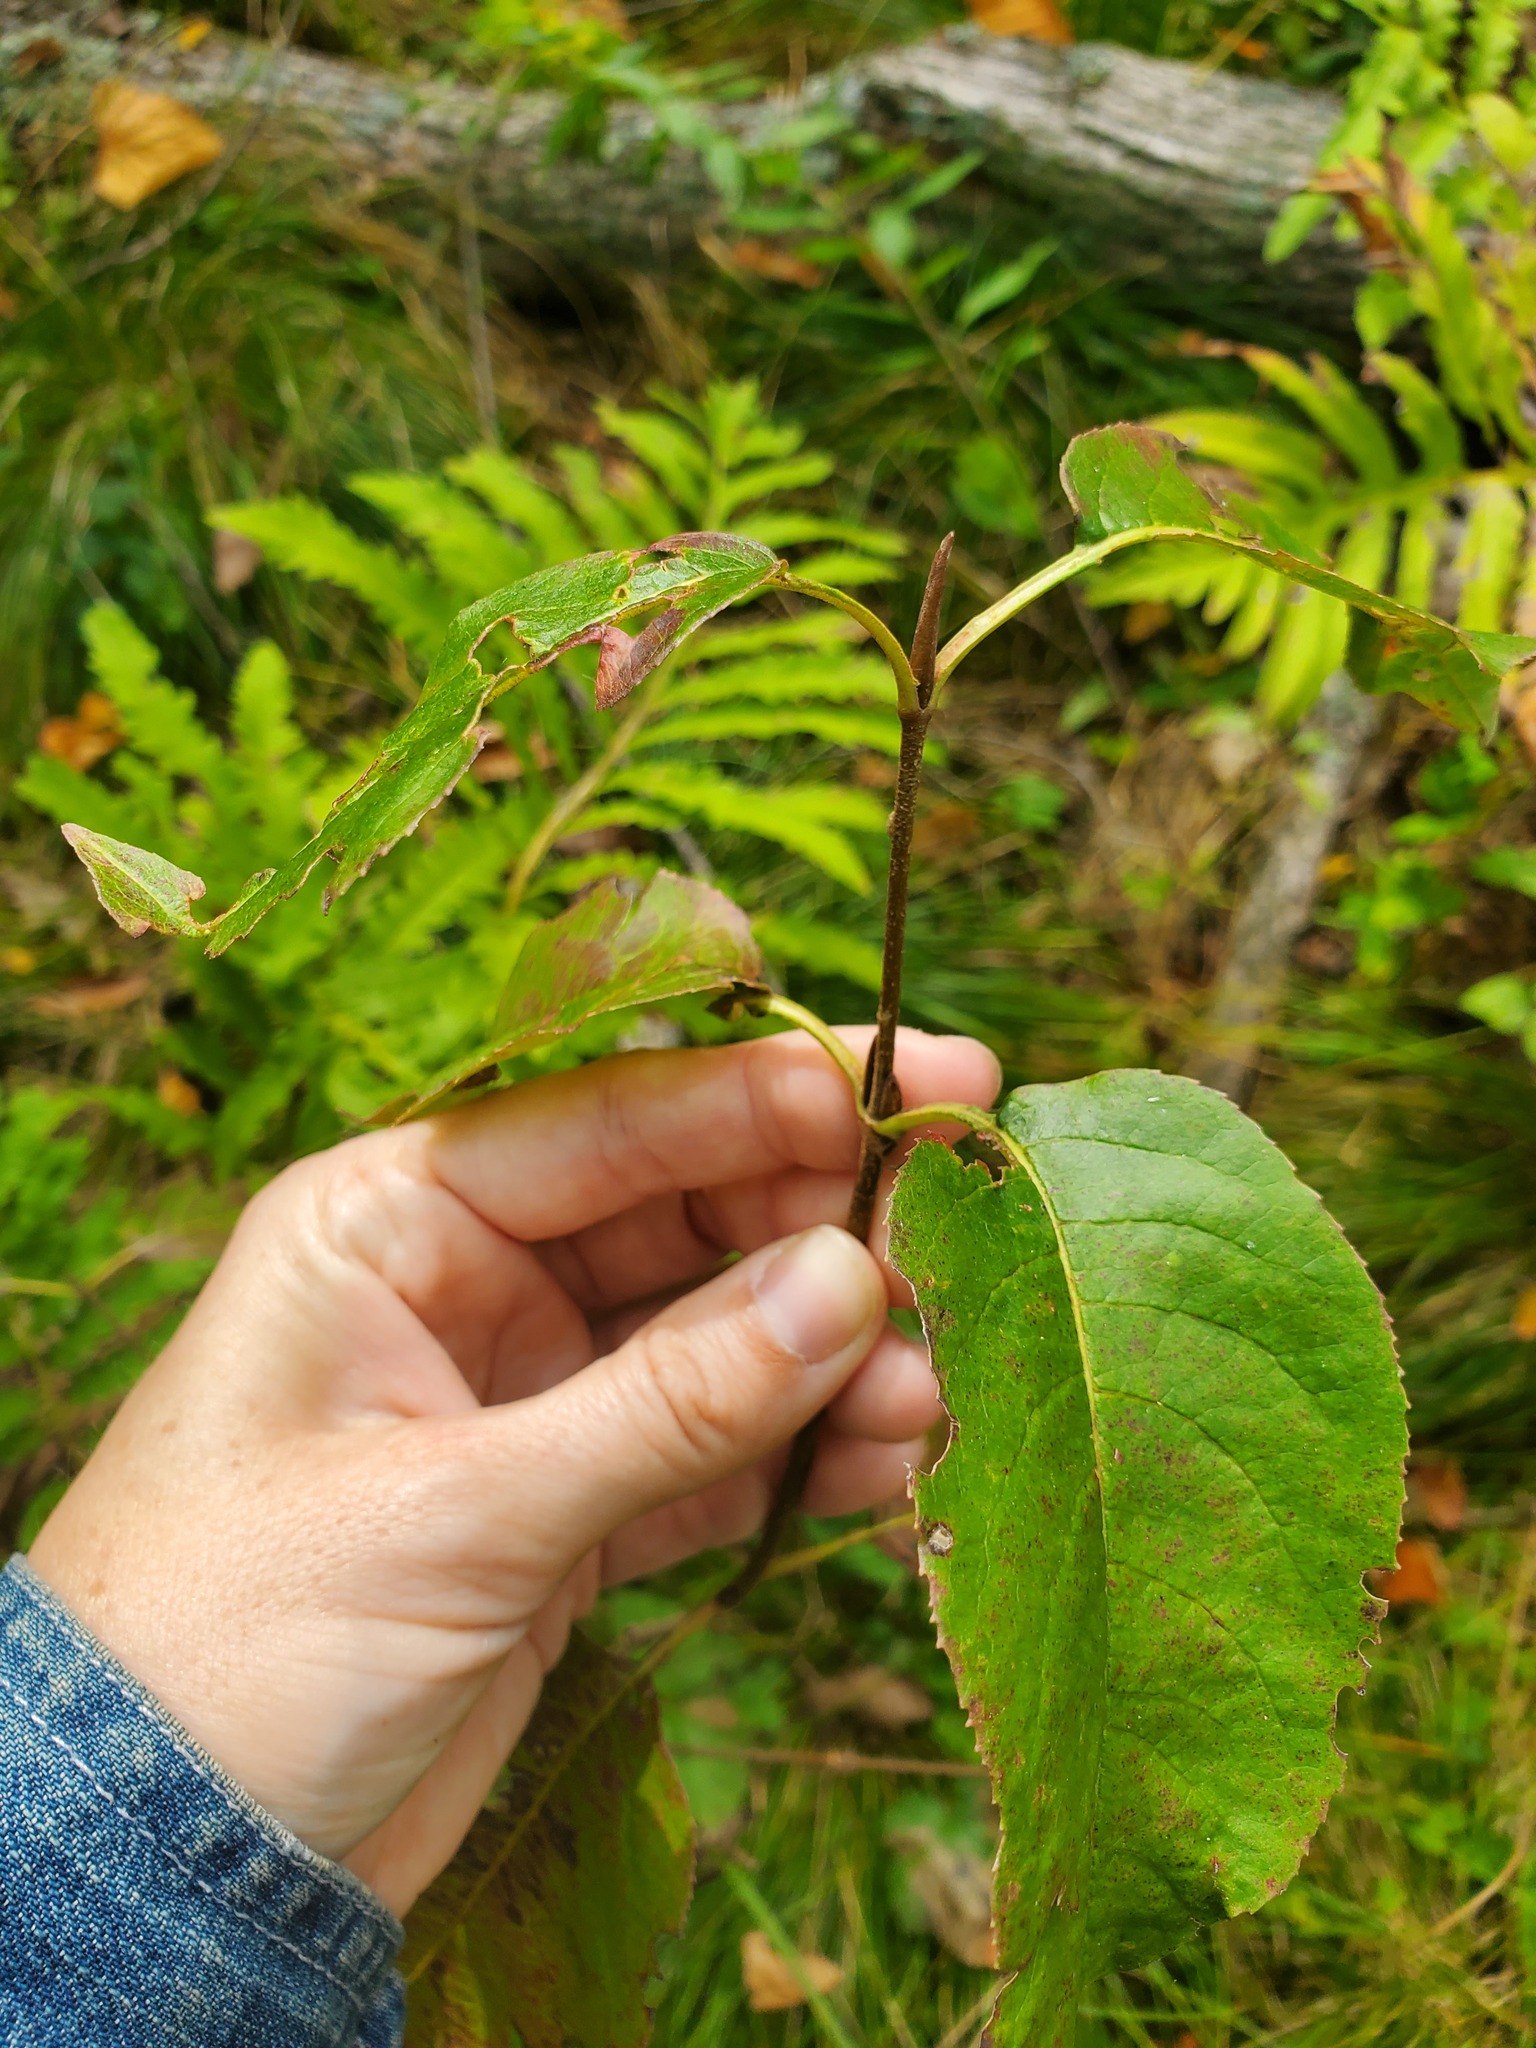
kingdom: Plantae
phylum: Tracheophyta
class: Magnoliopsida
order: Dipsacales
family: Viburnaceae
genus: Viburnum
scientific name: Viburnum lentago
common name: Black haw
